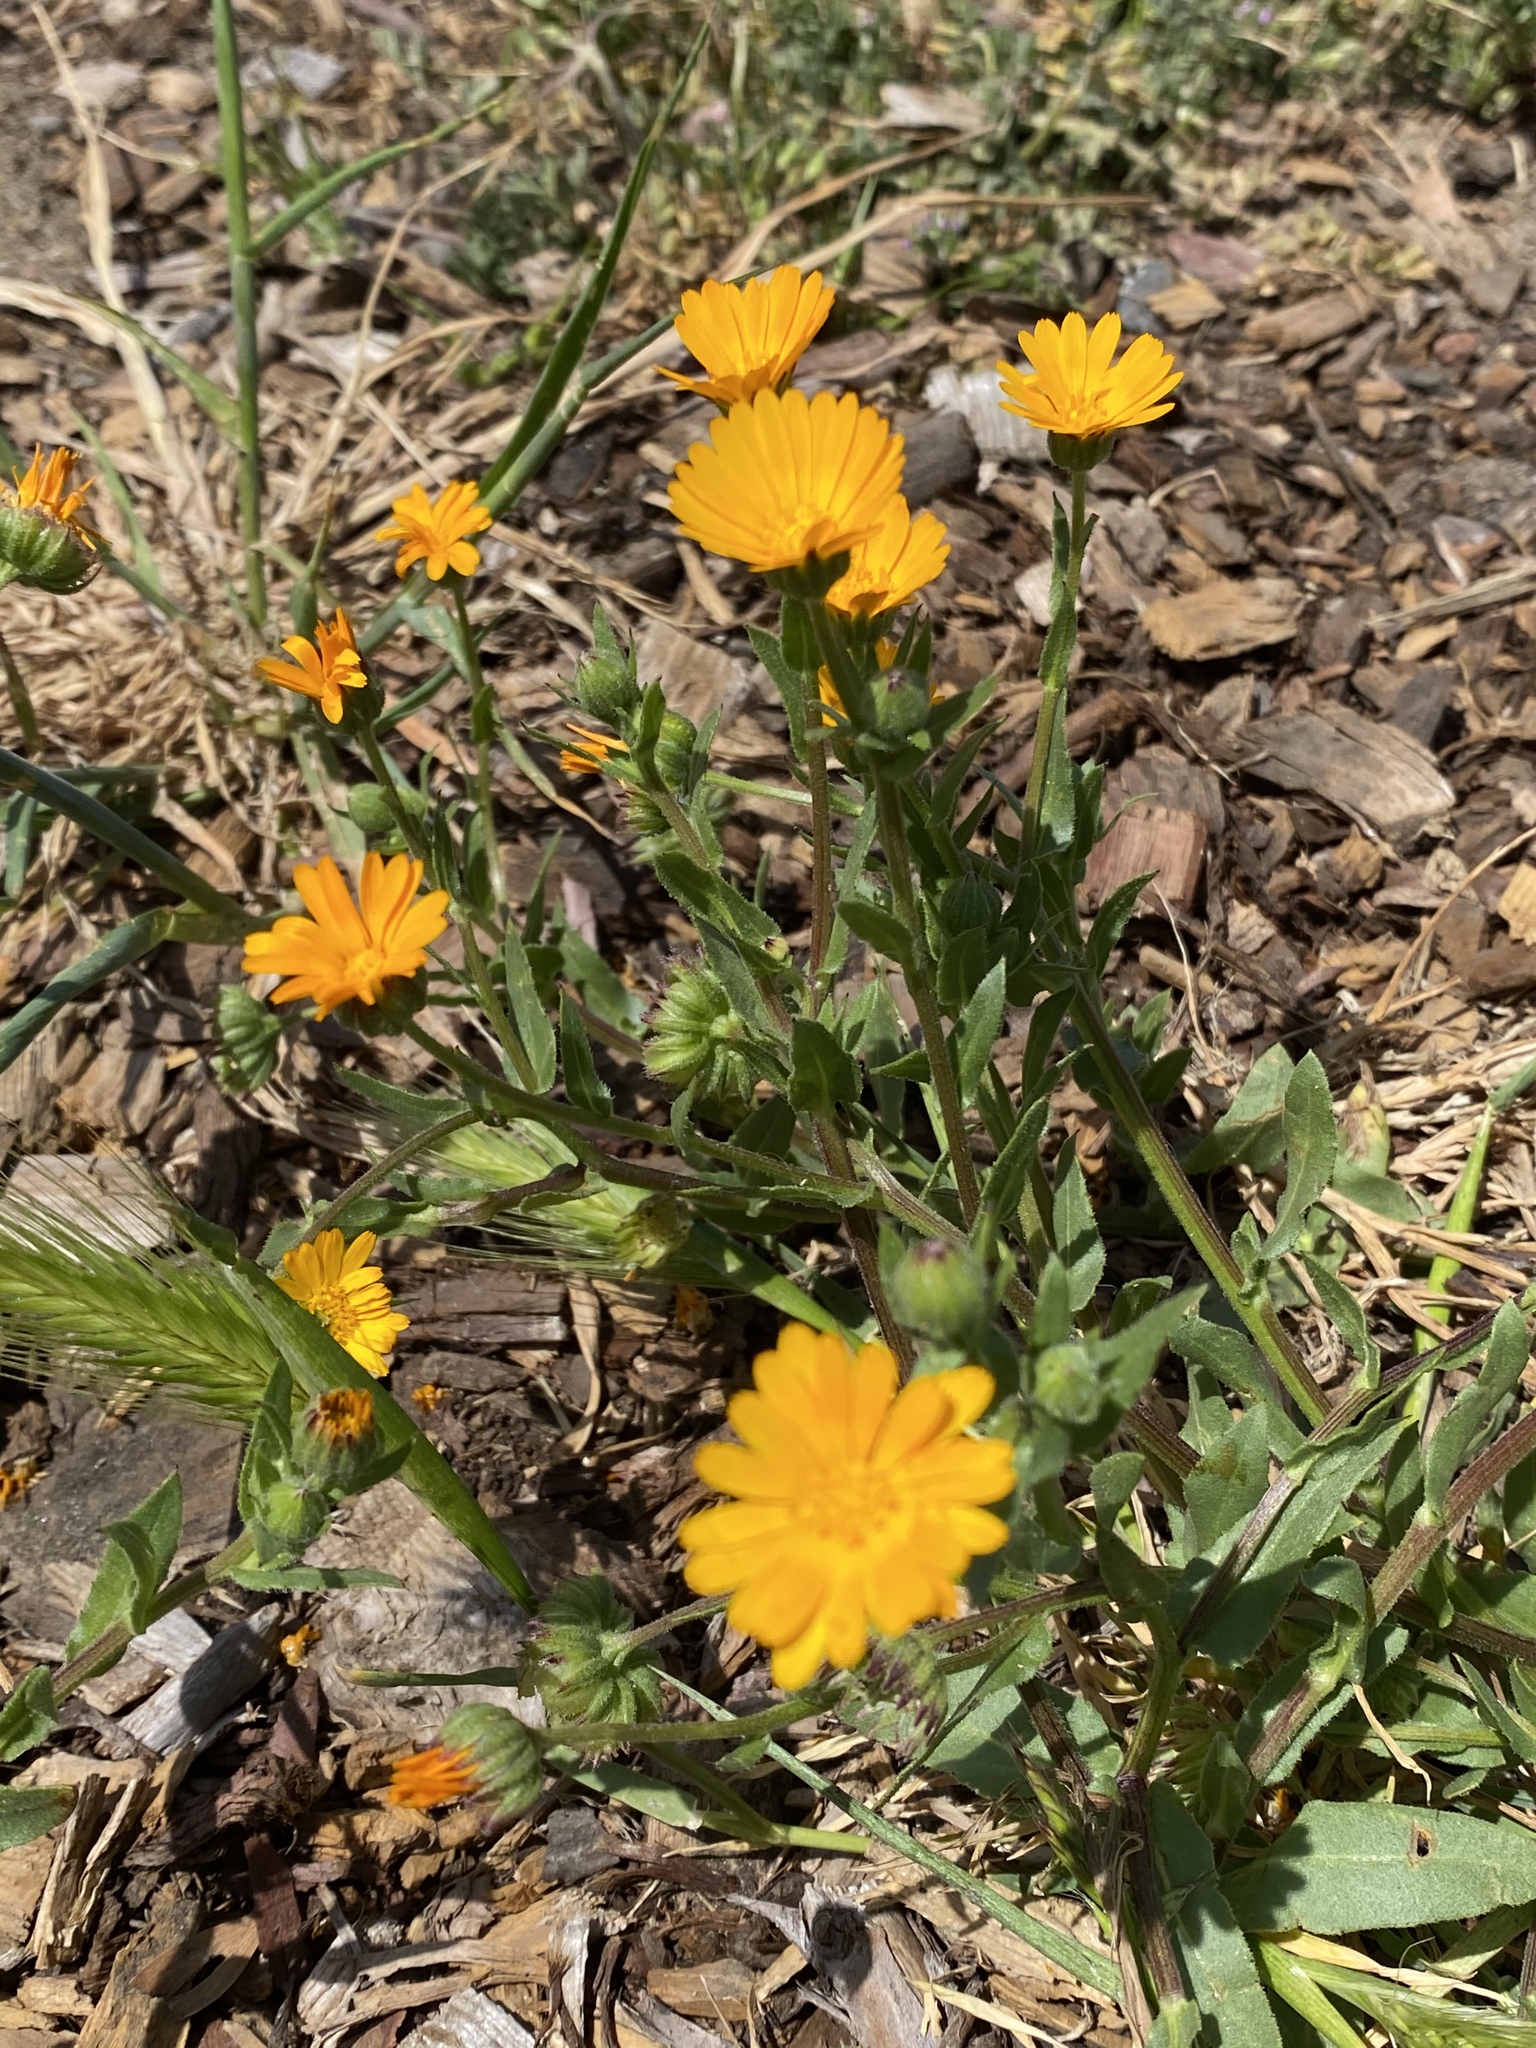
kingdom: Plantae
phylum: Tracheophyta
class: Magnoliopsida
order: Asterales
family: Asteraceae
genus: Calendula
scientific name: Calendula arvensis
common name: Field marigold
